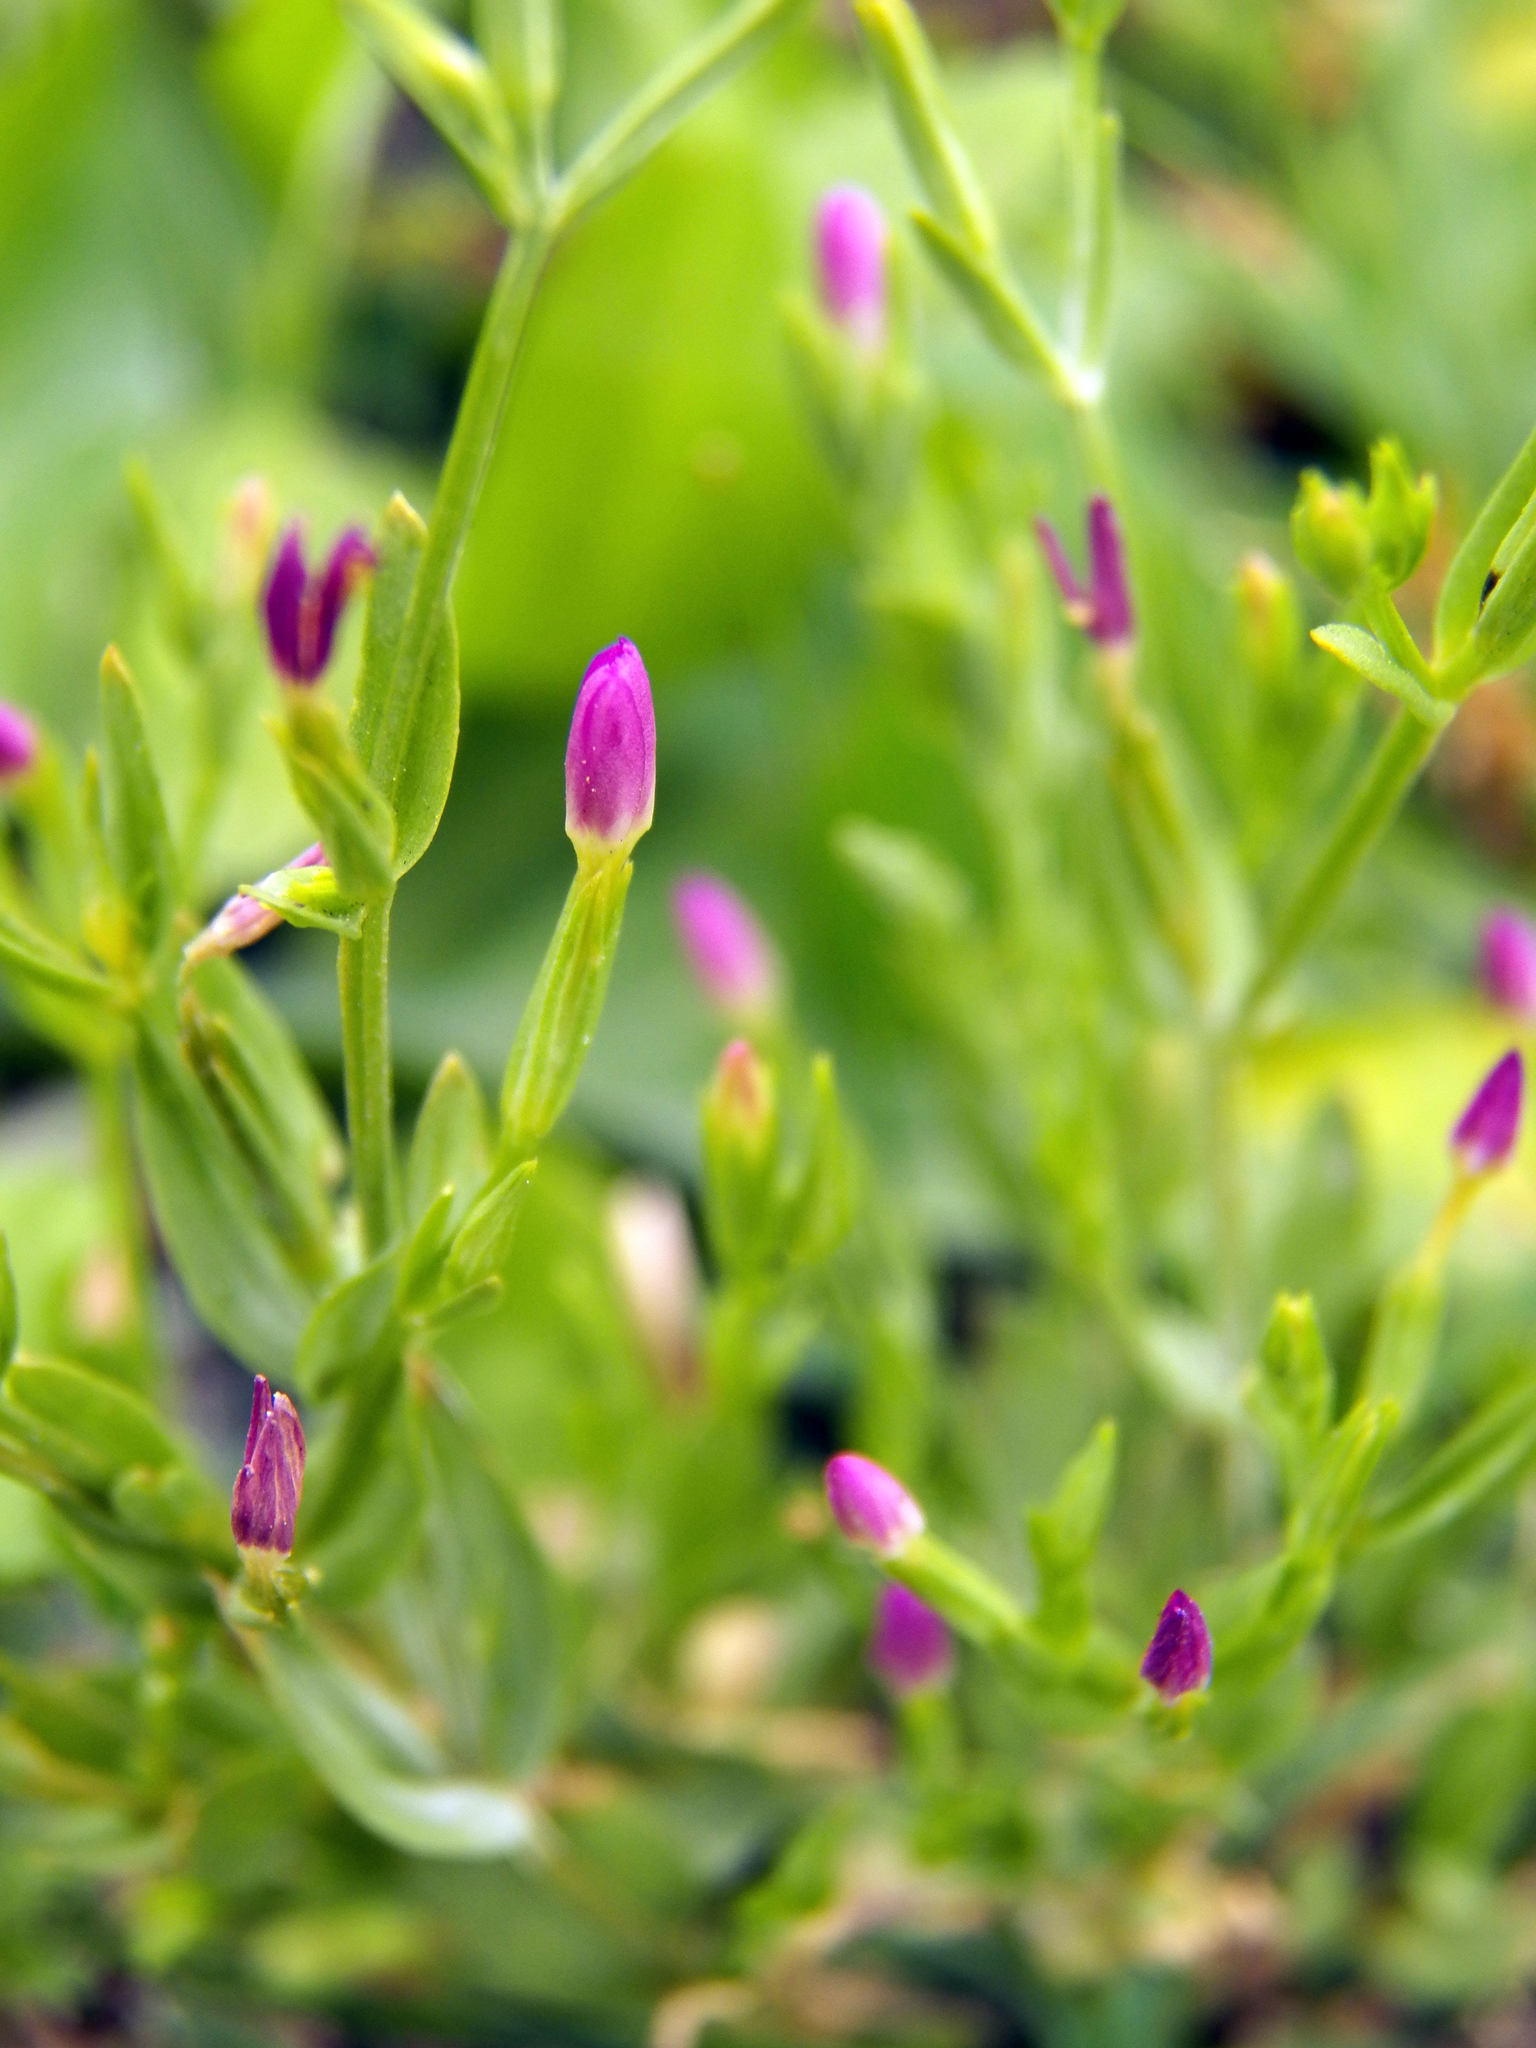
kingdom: Plantae
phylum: Tracheophyta
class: Magnoliopsida
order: Gentianales
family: Gentianaceae
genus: Centaurium
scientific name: Centaurium pulchellum
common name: Lesser centaury
